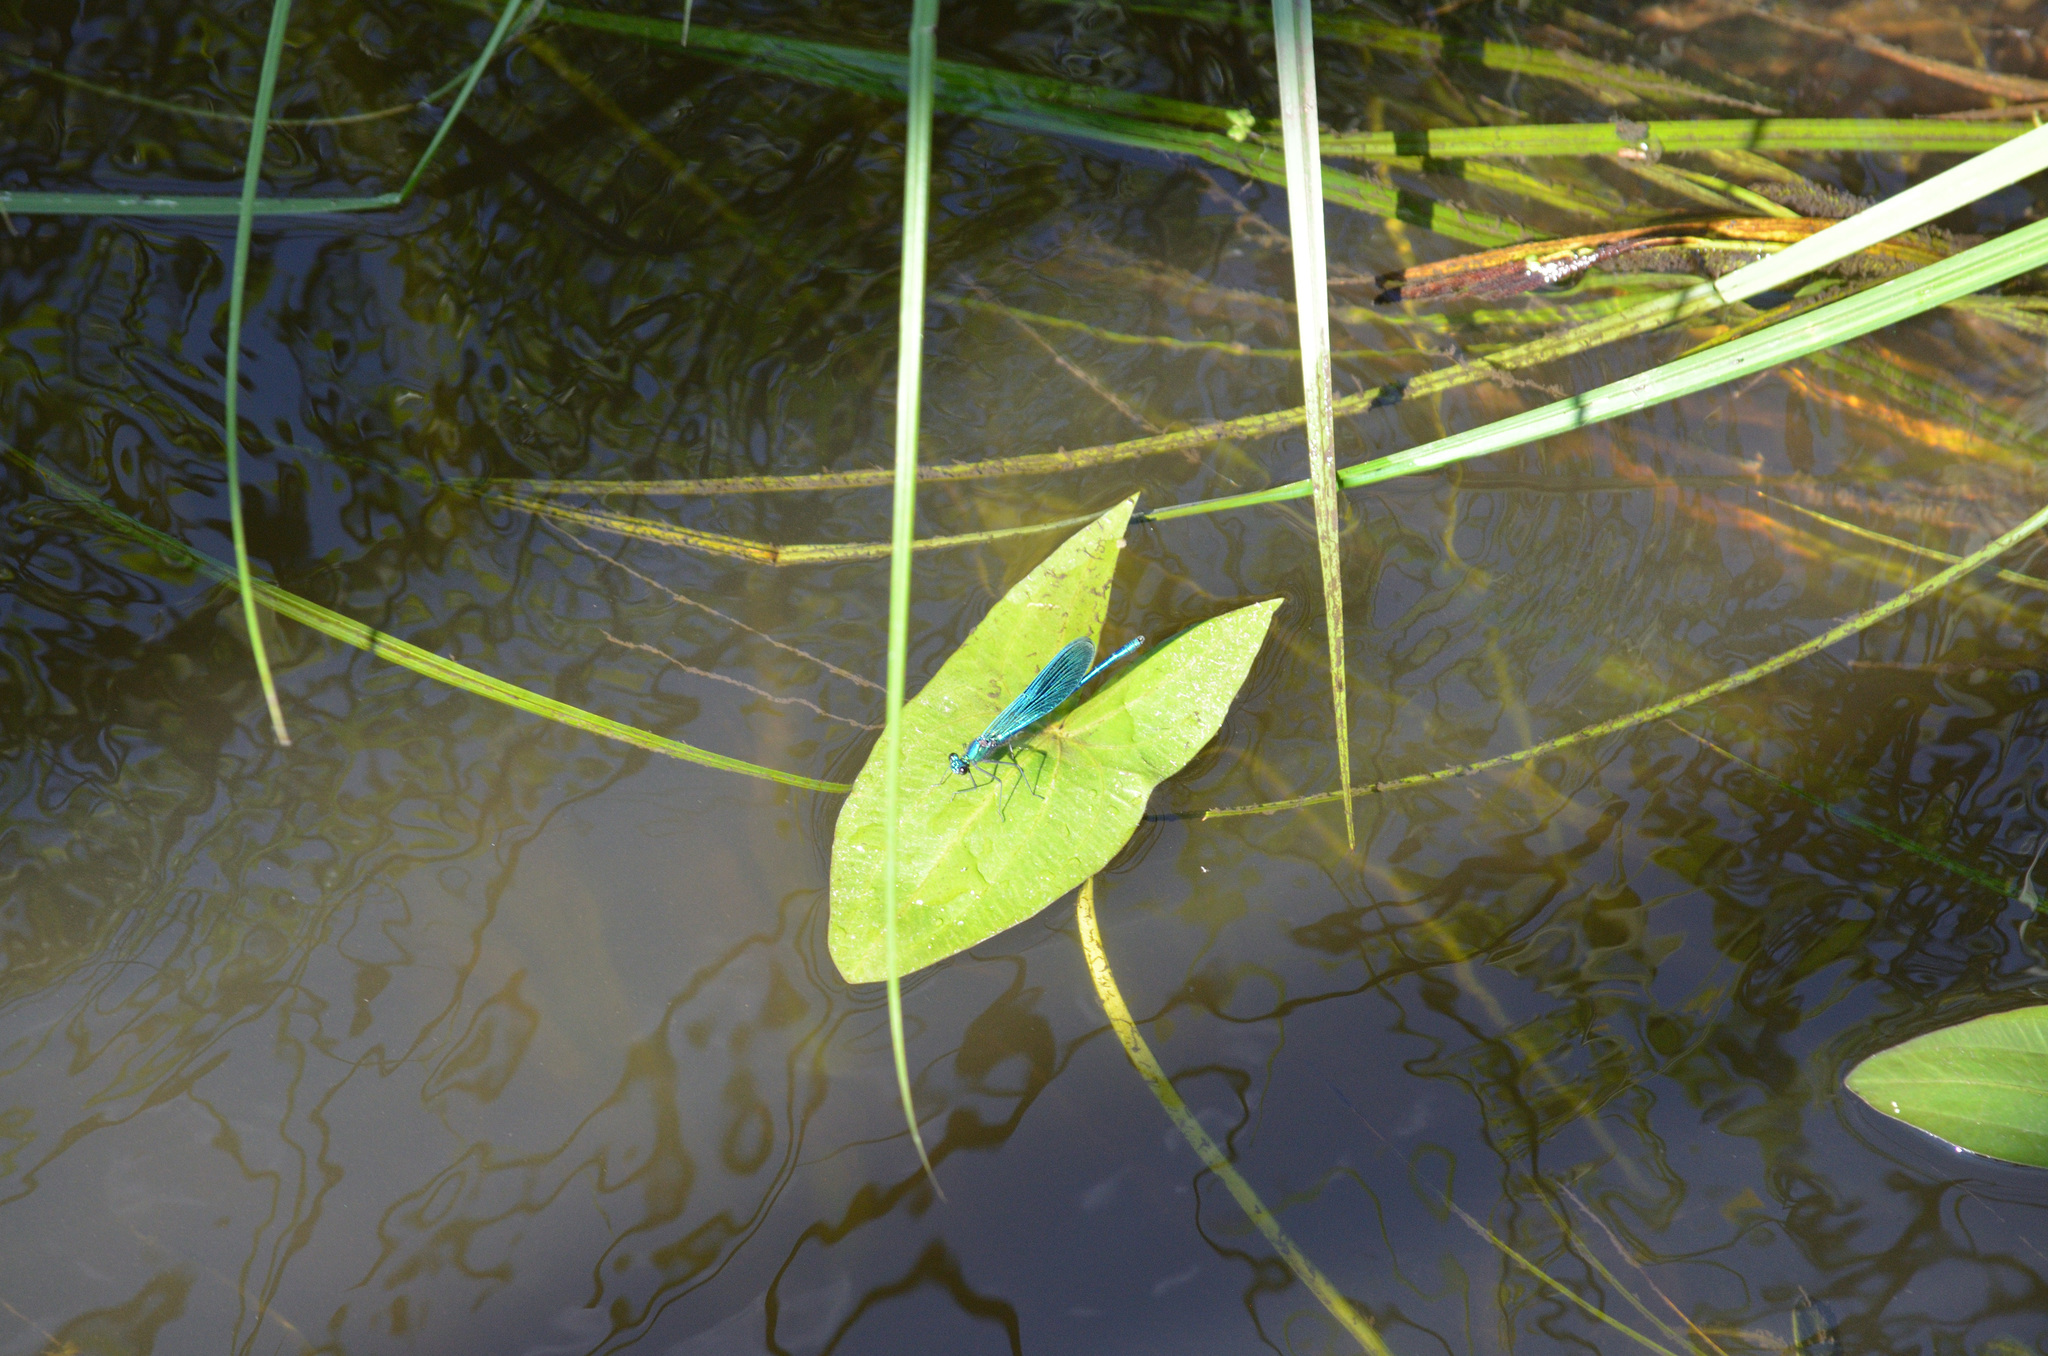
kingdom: Animalia
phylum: Arthropoda
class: Insecta
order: Odonata
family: Calopterygidae
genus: Calopteryx
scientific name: Calopteryx splendens
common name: Banded demoiselle
